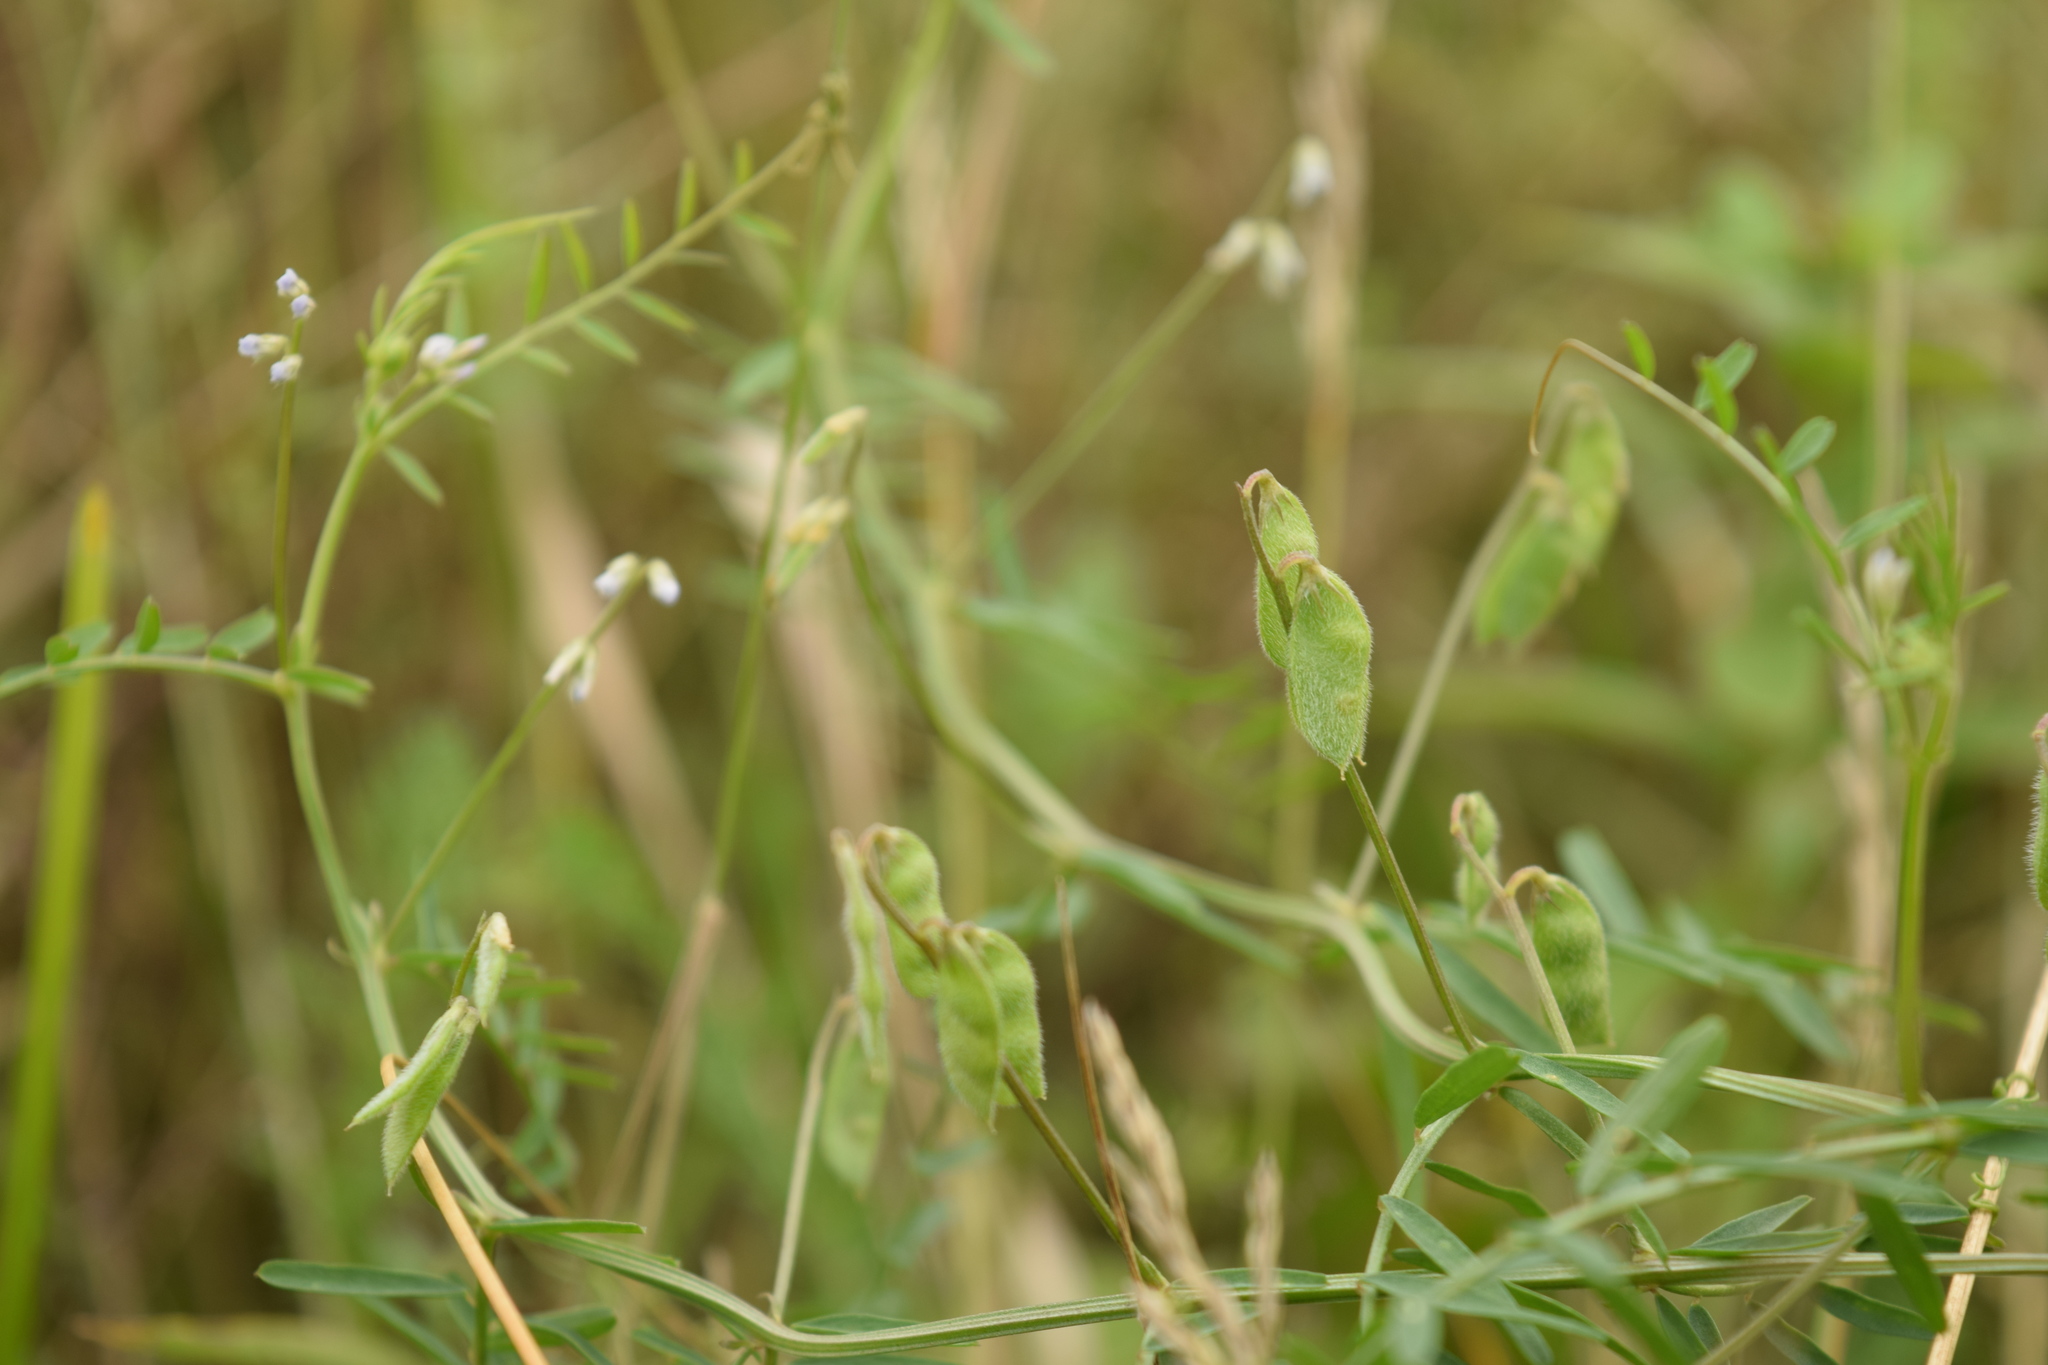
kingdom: Plantae
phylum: Tracheophyta
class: Magnoliopsida
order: Fabales
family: Fabaceae
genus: Vicia
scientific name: Vicia hirsuta
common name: Tiny vetch
